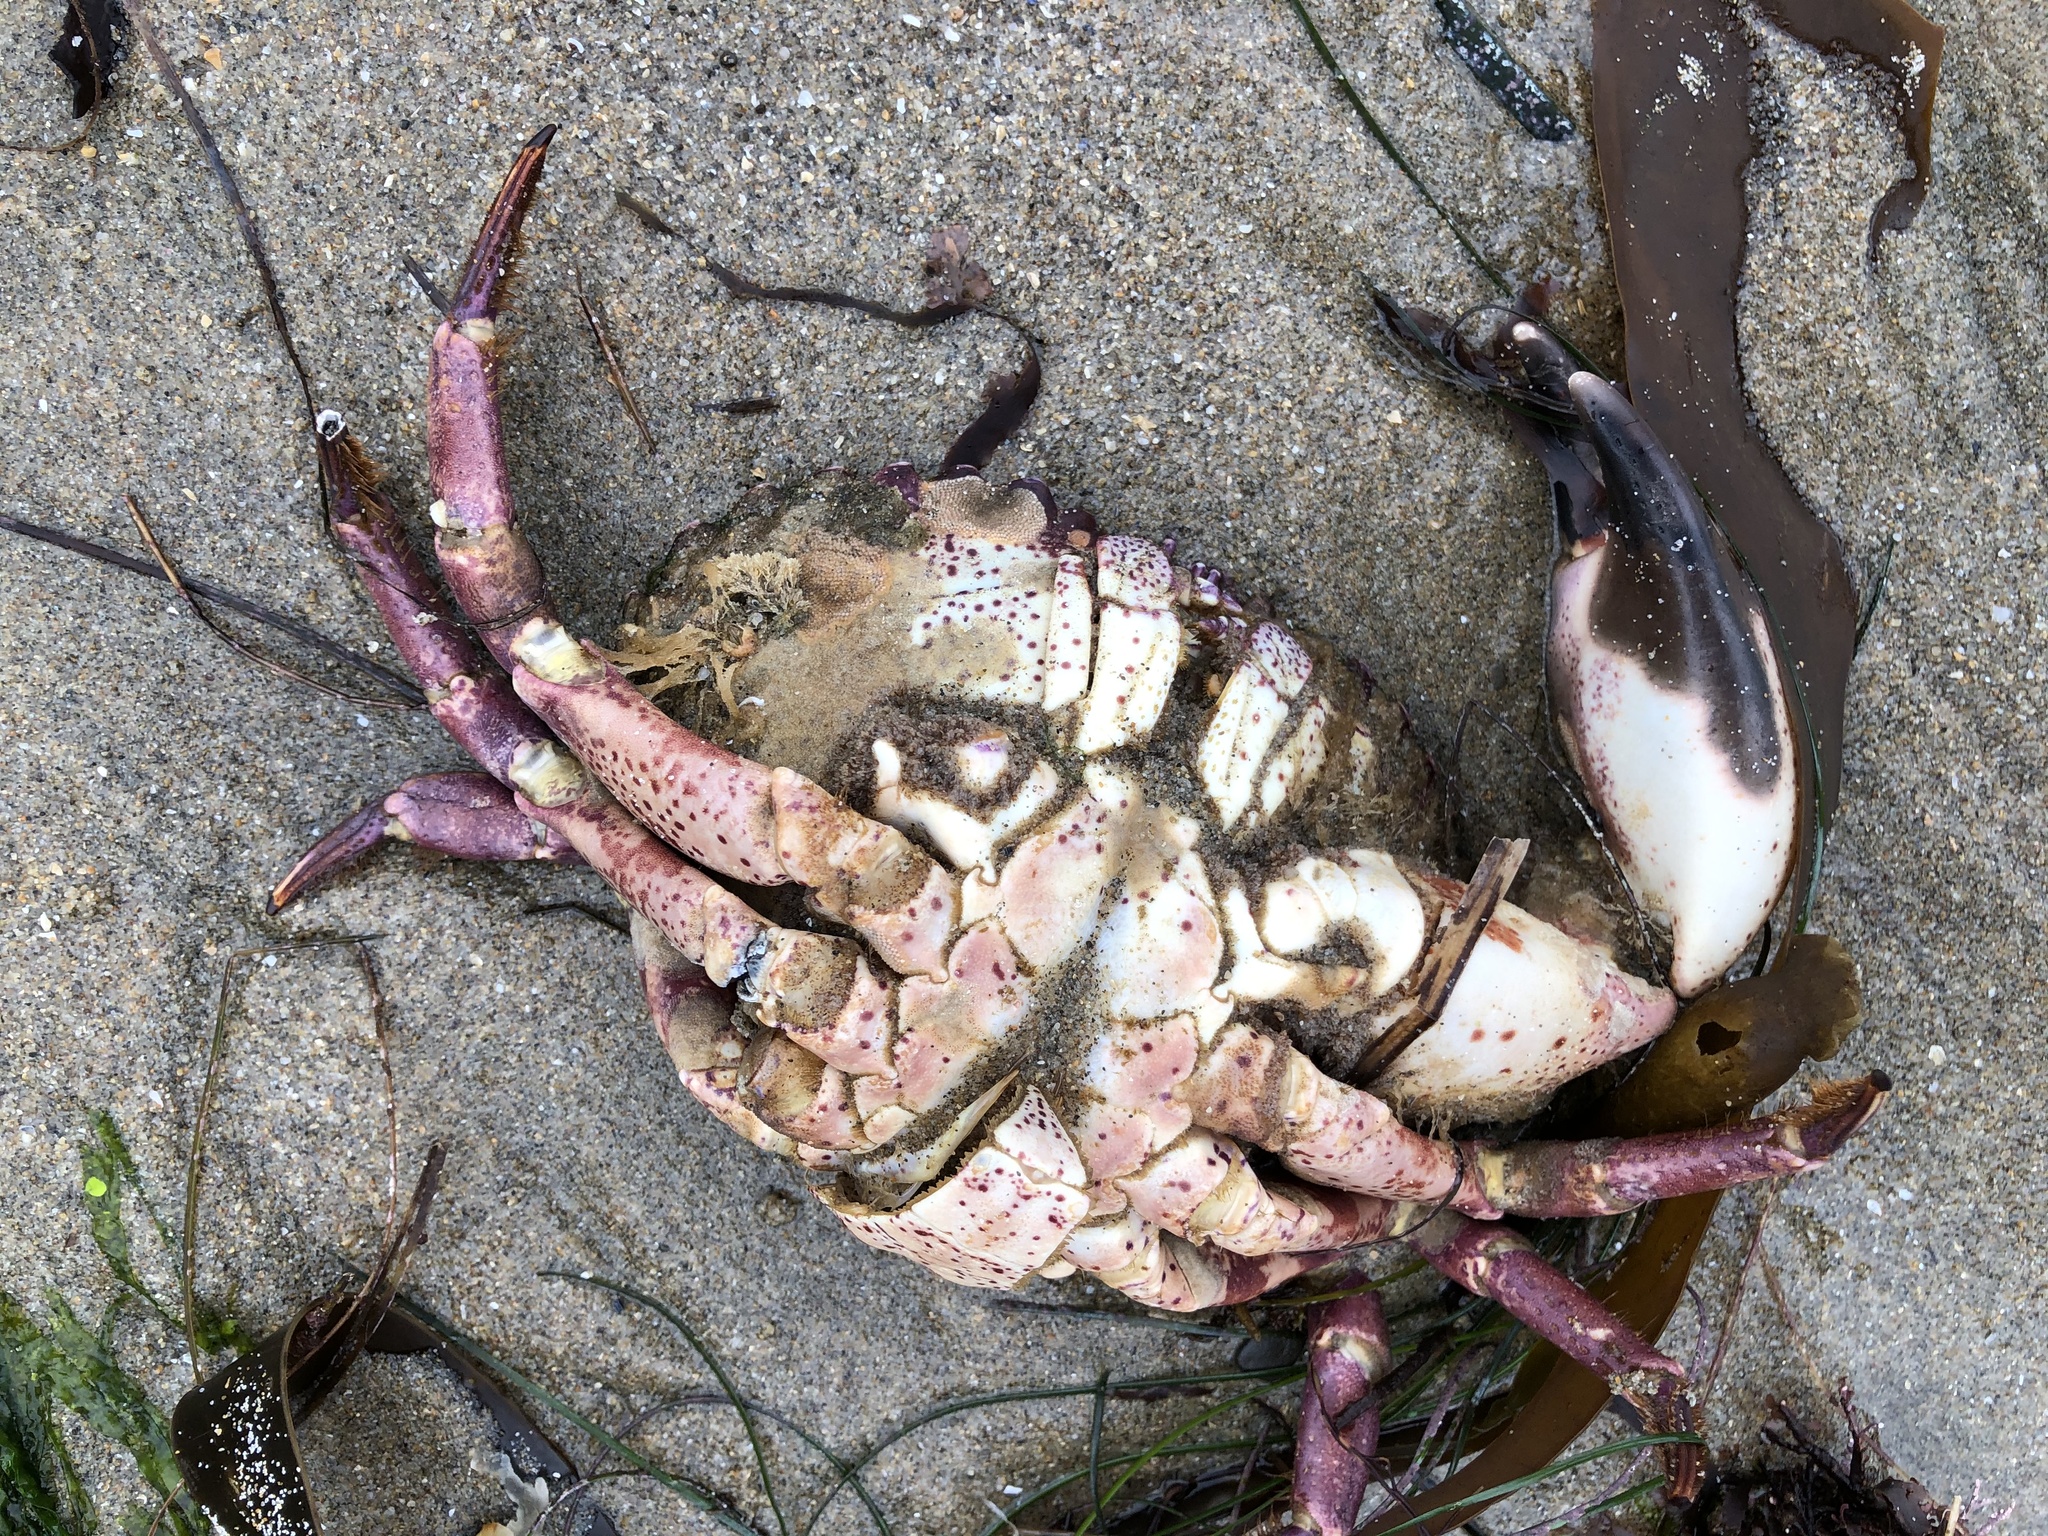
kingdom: Animalia
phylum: Arthropoda
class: Malacostraca
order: Decapoda
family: Cancridae
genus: Romaleon
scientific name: Romaleon antennarium
